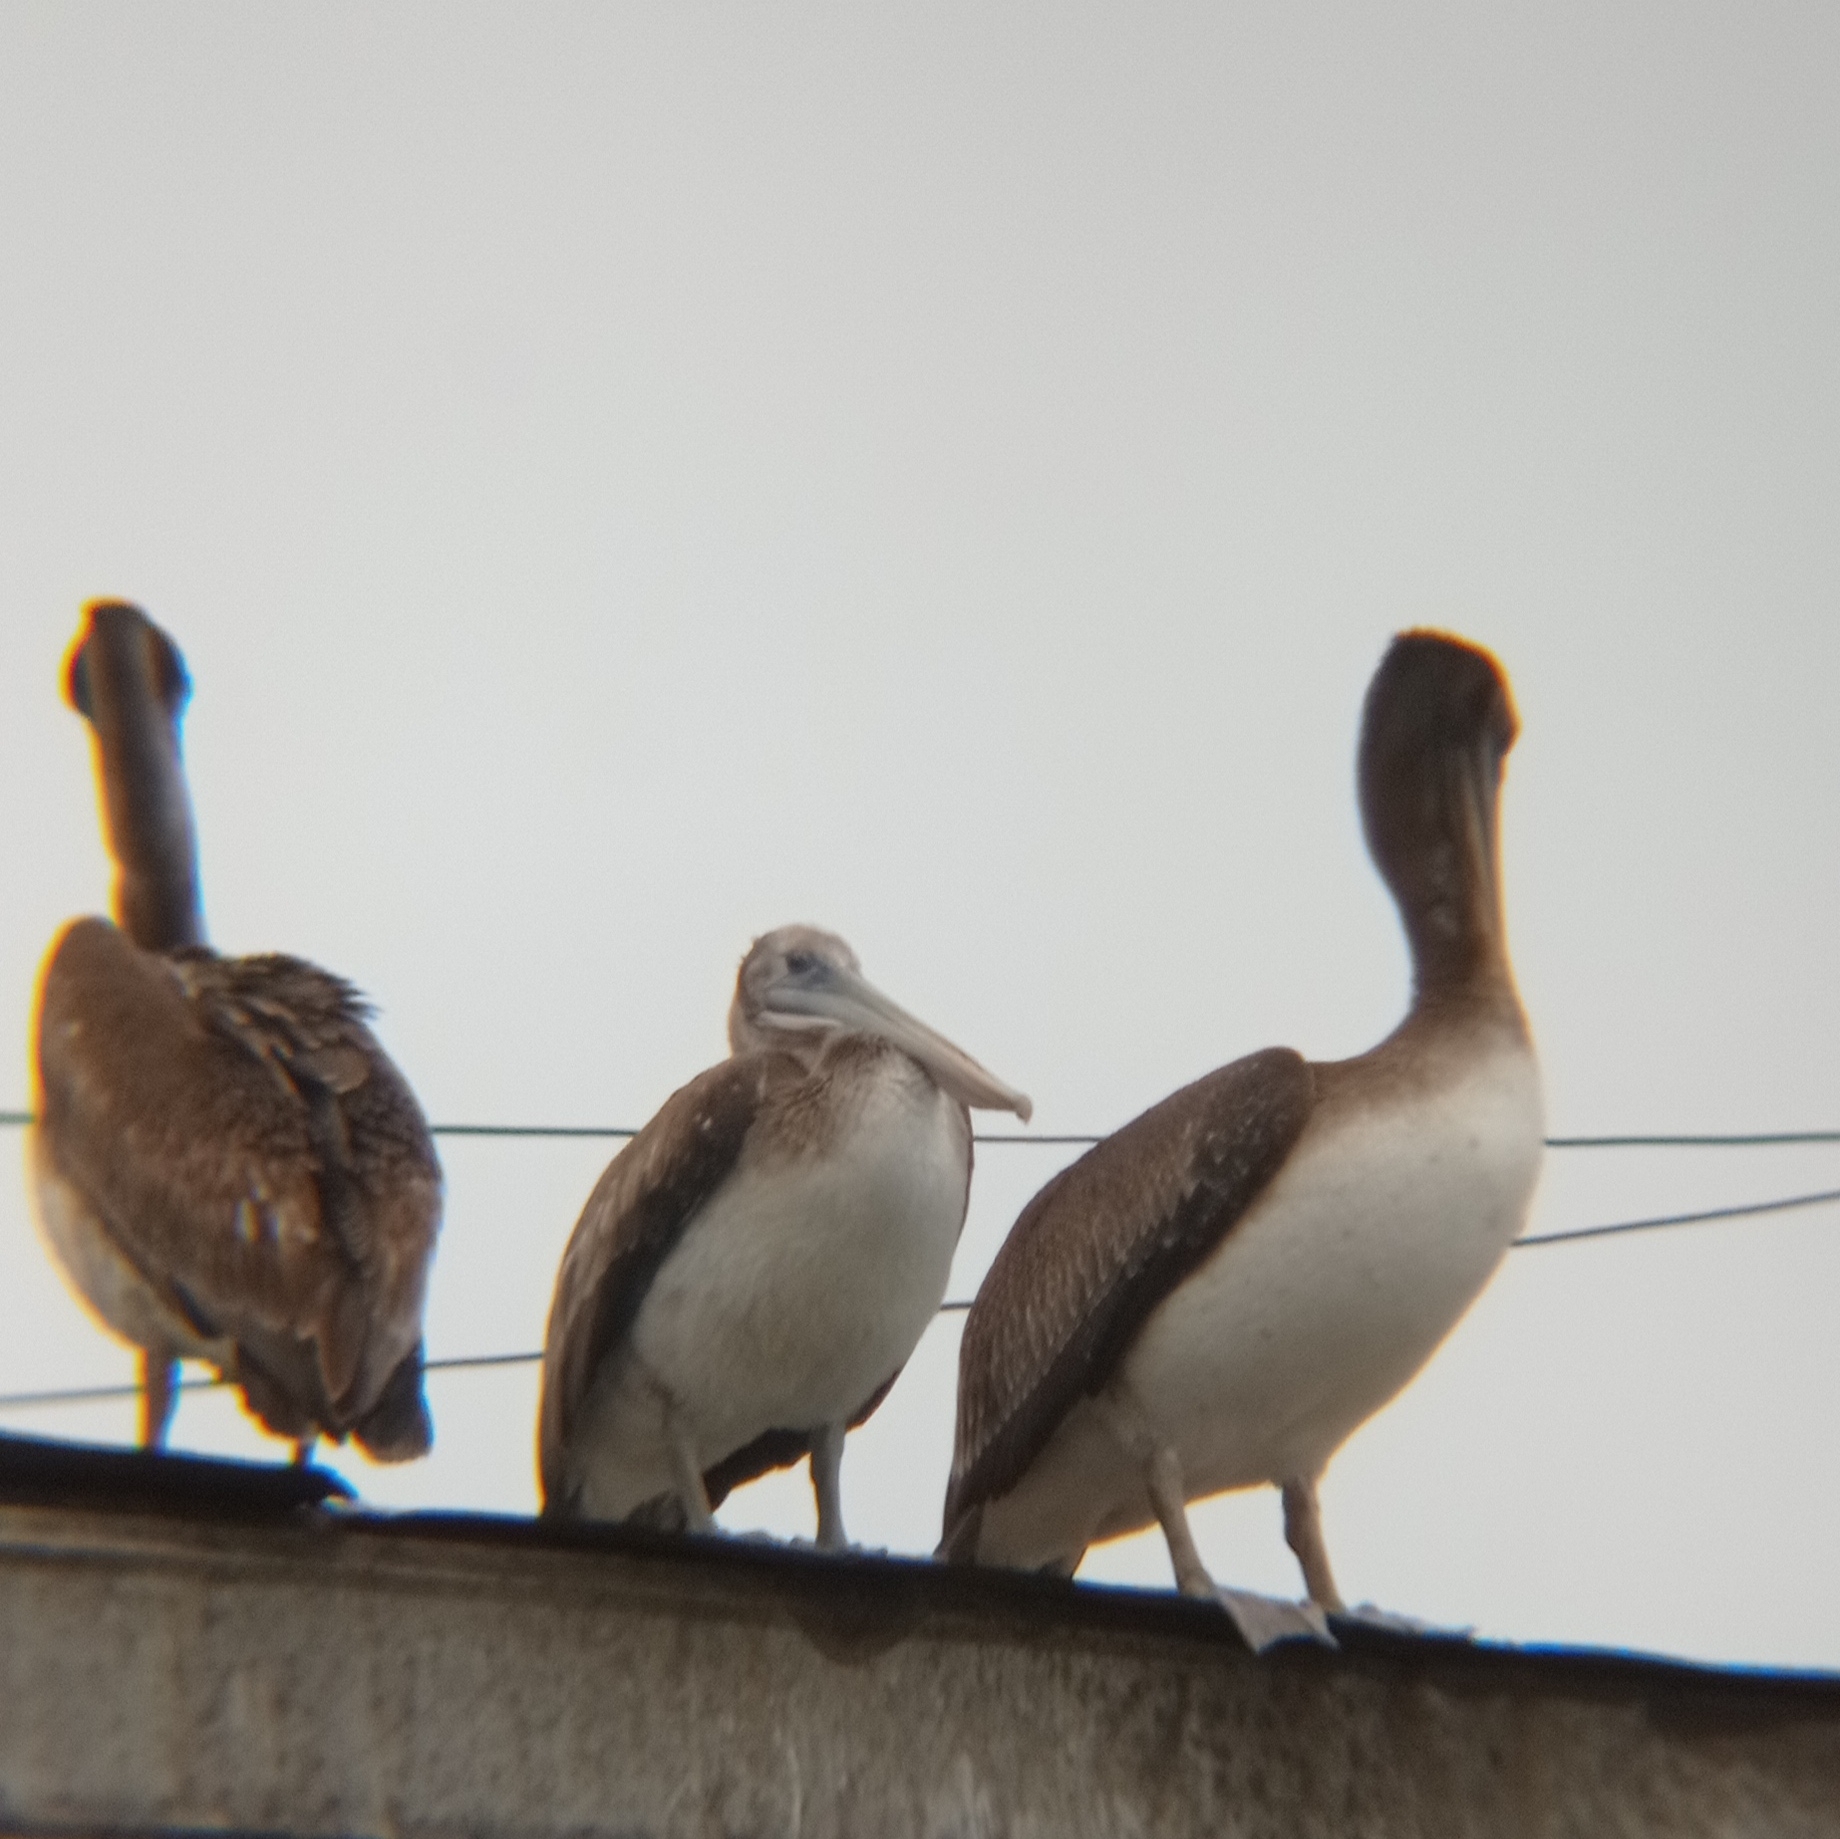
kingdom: Animalia
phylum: Chordata
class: Aves
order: Pelecaniformes
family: Pelecanidae
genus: Pelecanus
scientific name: Pelecanus thagus
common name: Peruvian pelican
